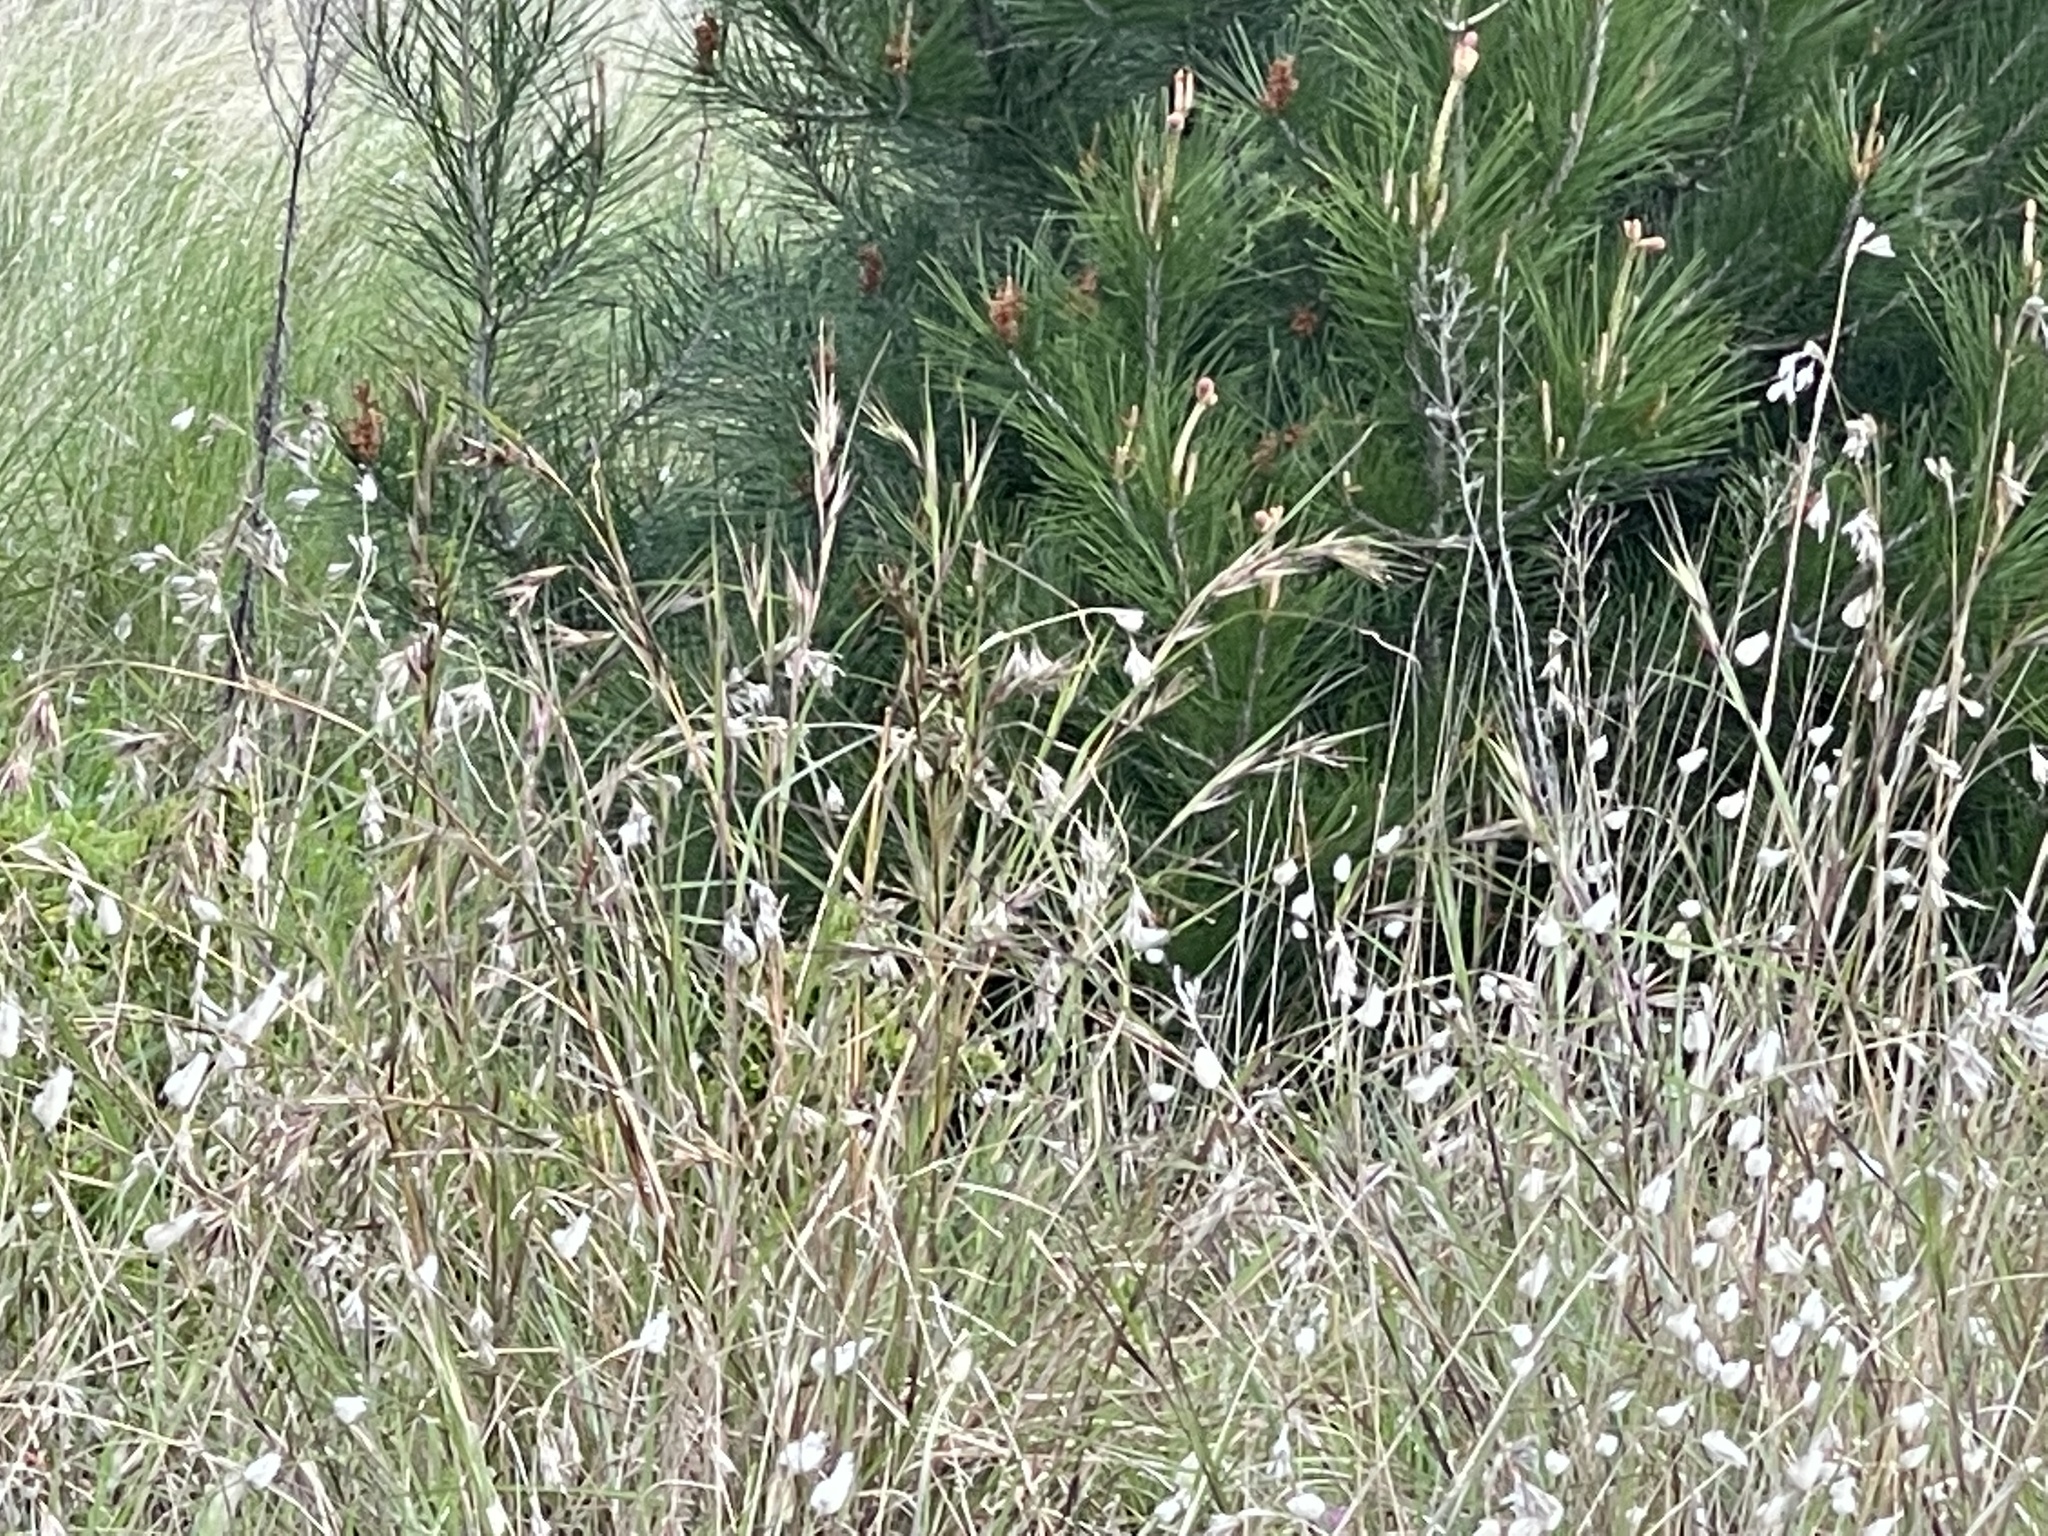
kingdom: Plantae
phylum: Tracheophyta
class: Liliopsida
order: Poales
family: Poaceae
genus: Themeda
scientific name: Themeda triandra
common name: Kangaroo grass
